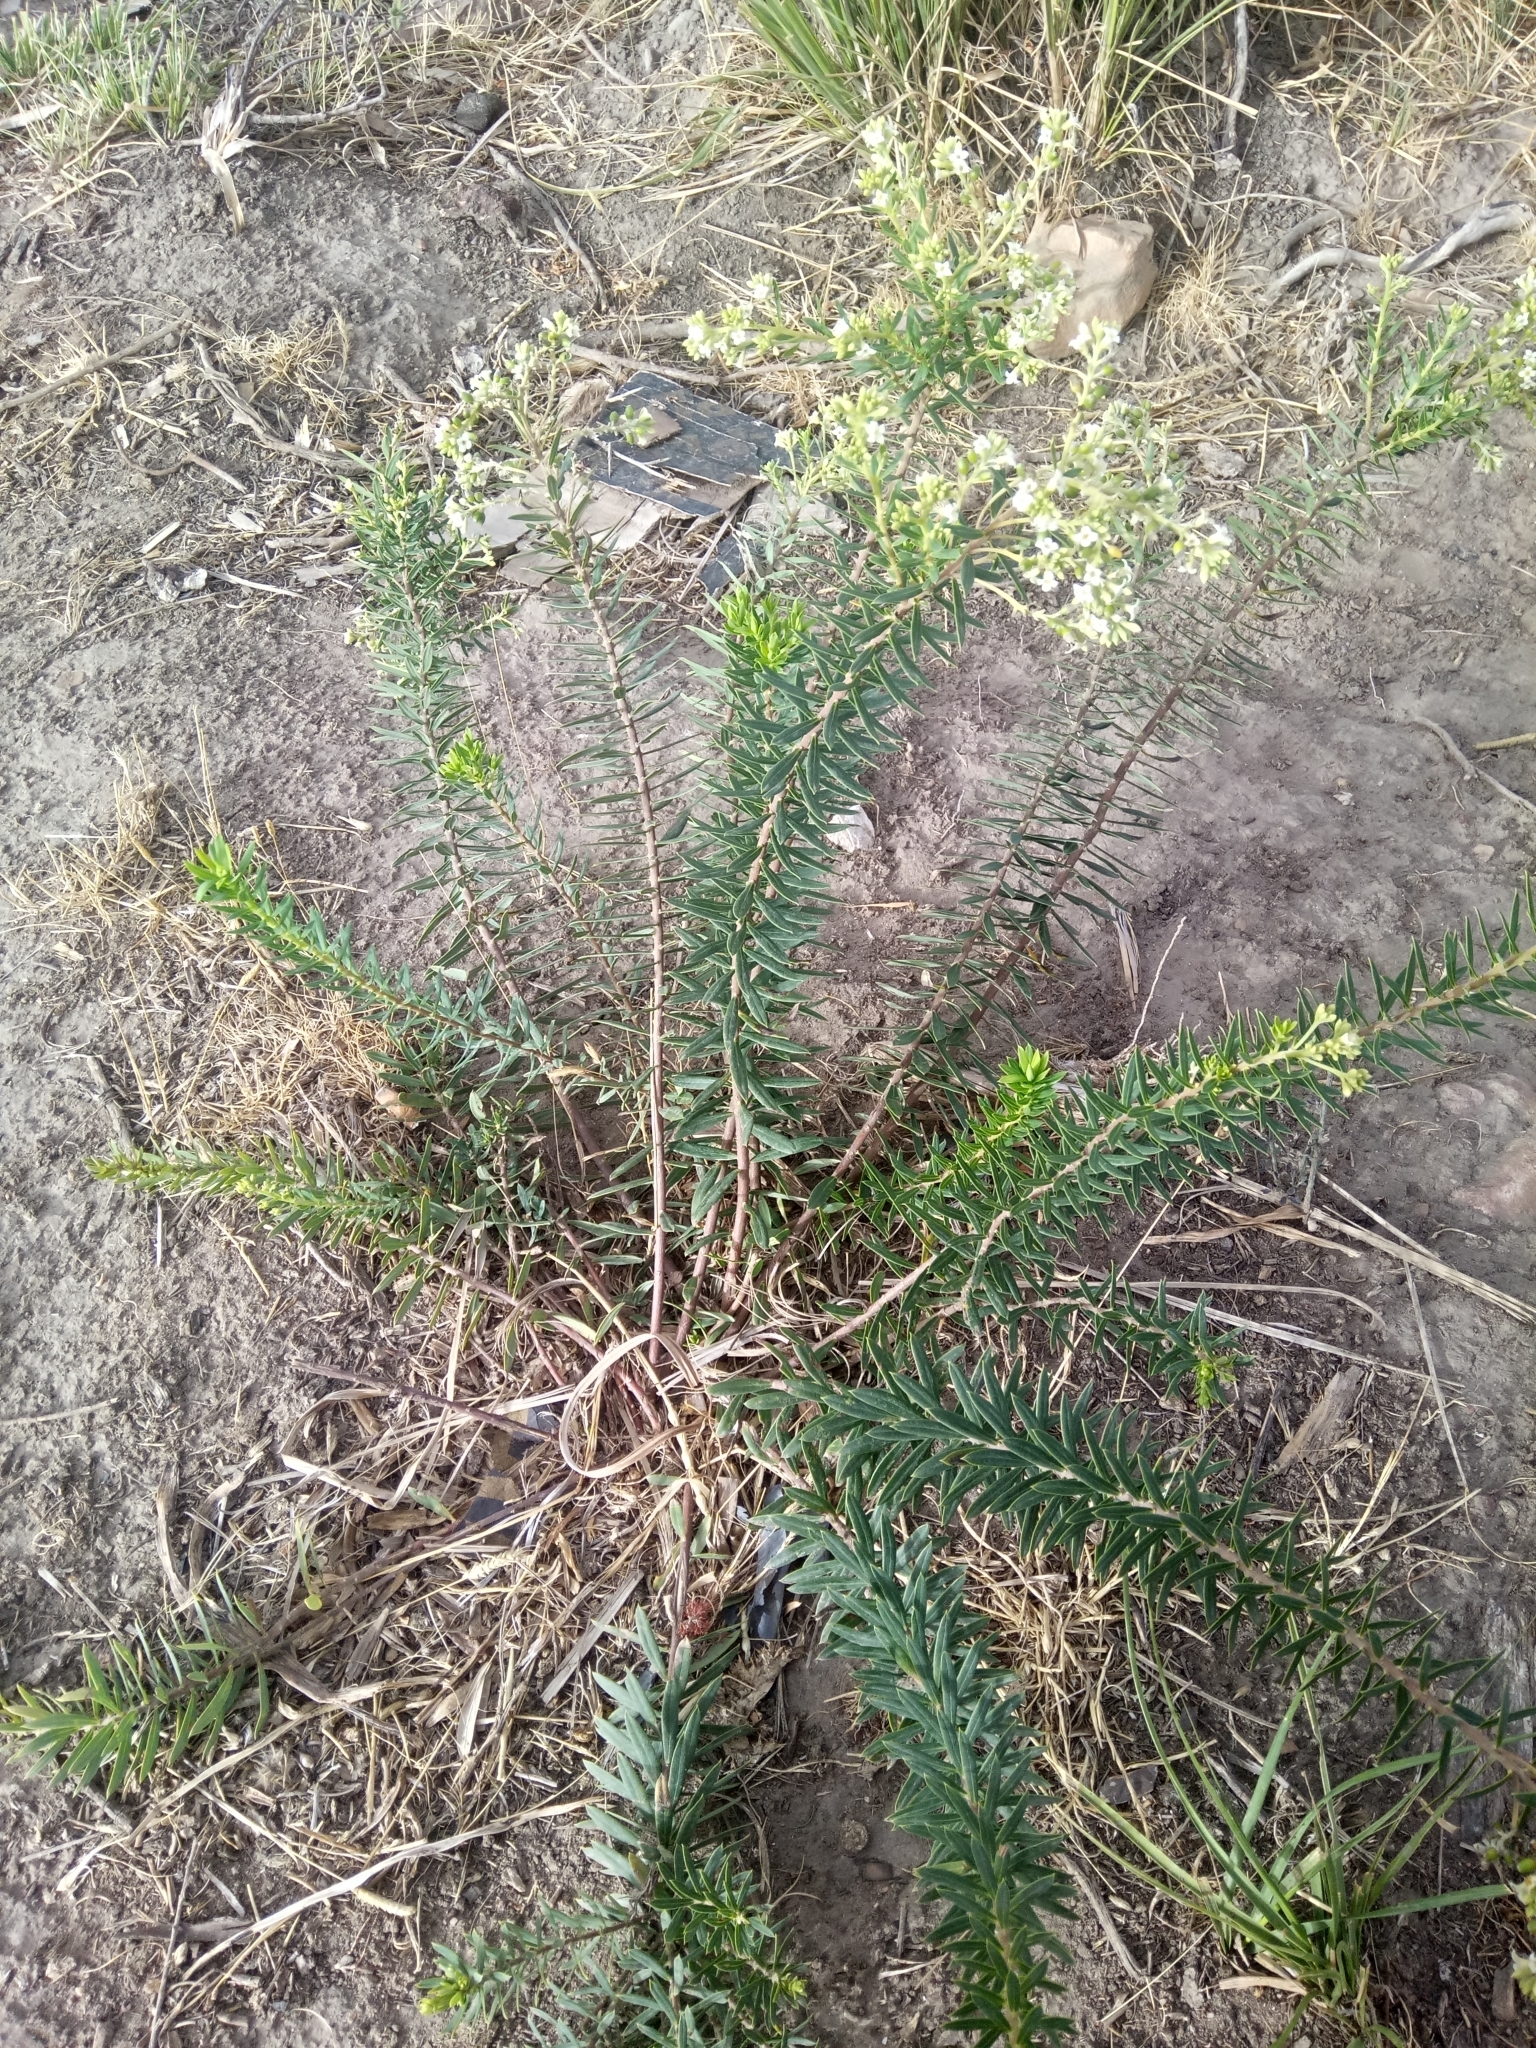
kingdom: Plantae
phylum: Tracheophyta
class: Magnoliopsida
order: Malvales
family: Thymelaeaceae
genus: Daphne
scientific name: Daphne gnidium
